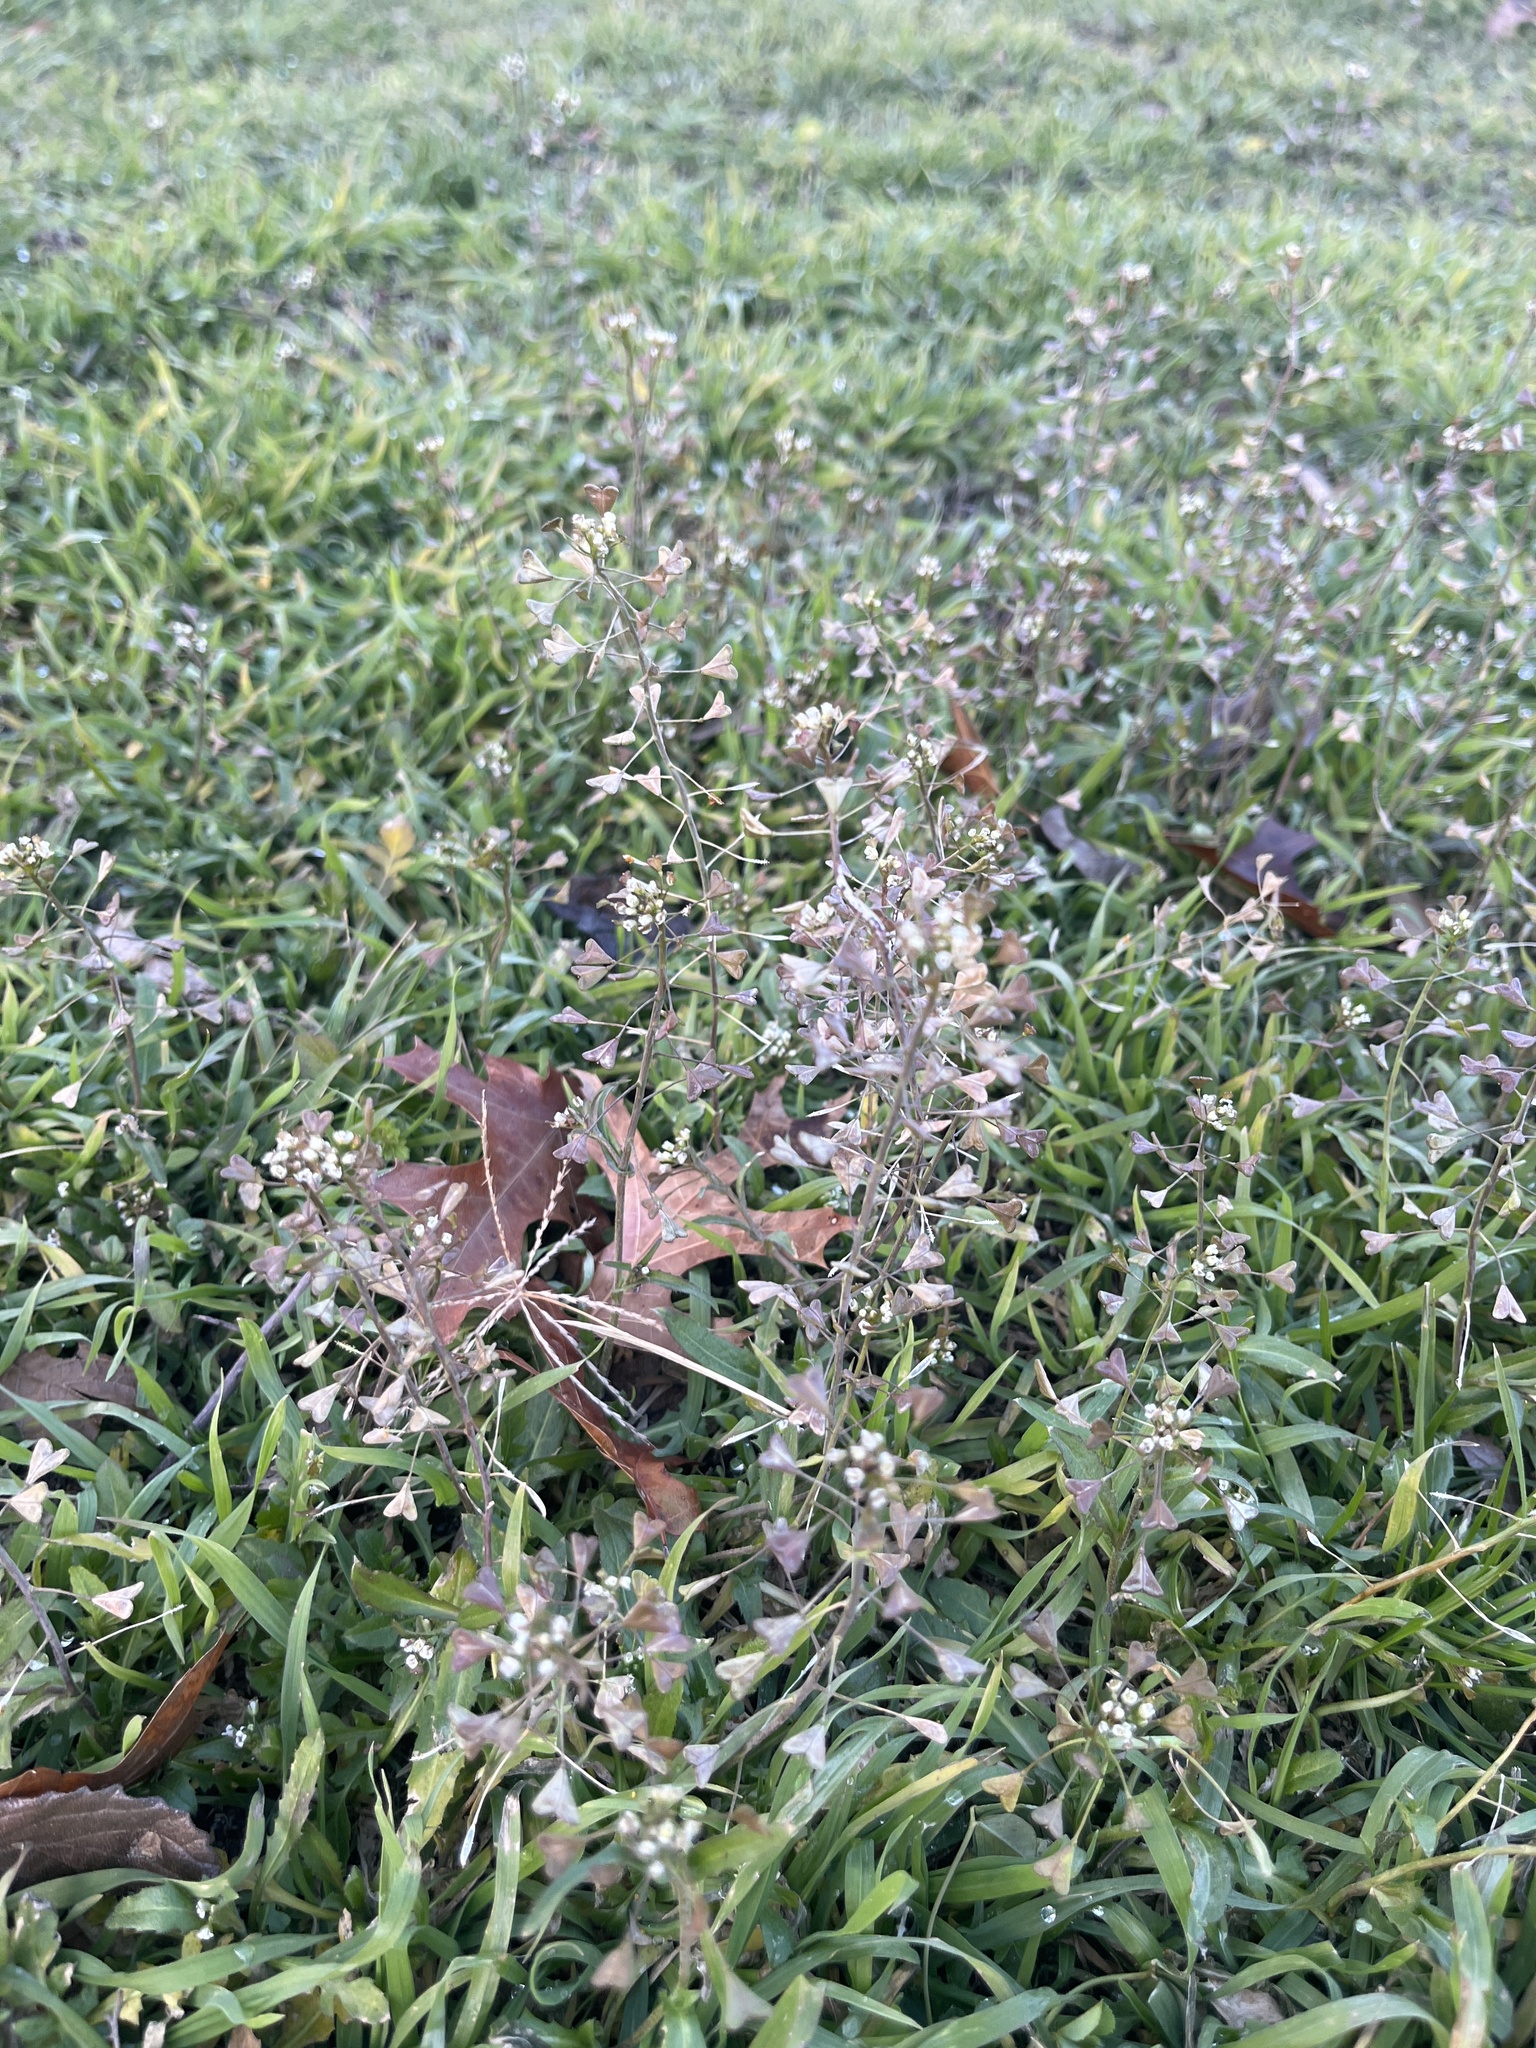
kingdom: Plantae
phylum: Tracheophyta
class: Magnoliopsida
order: Brassicales
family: Brassicaceae
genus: Capsella
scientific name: Capsella bursa-pastoris
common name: Shepherd's purse
